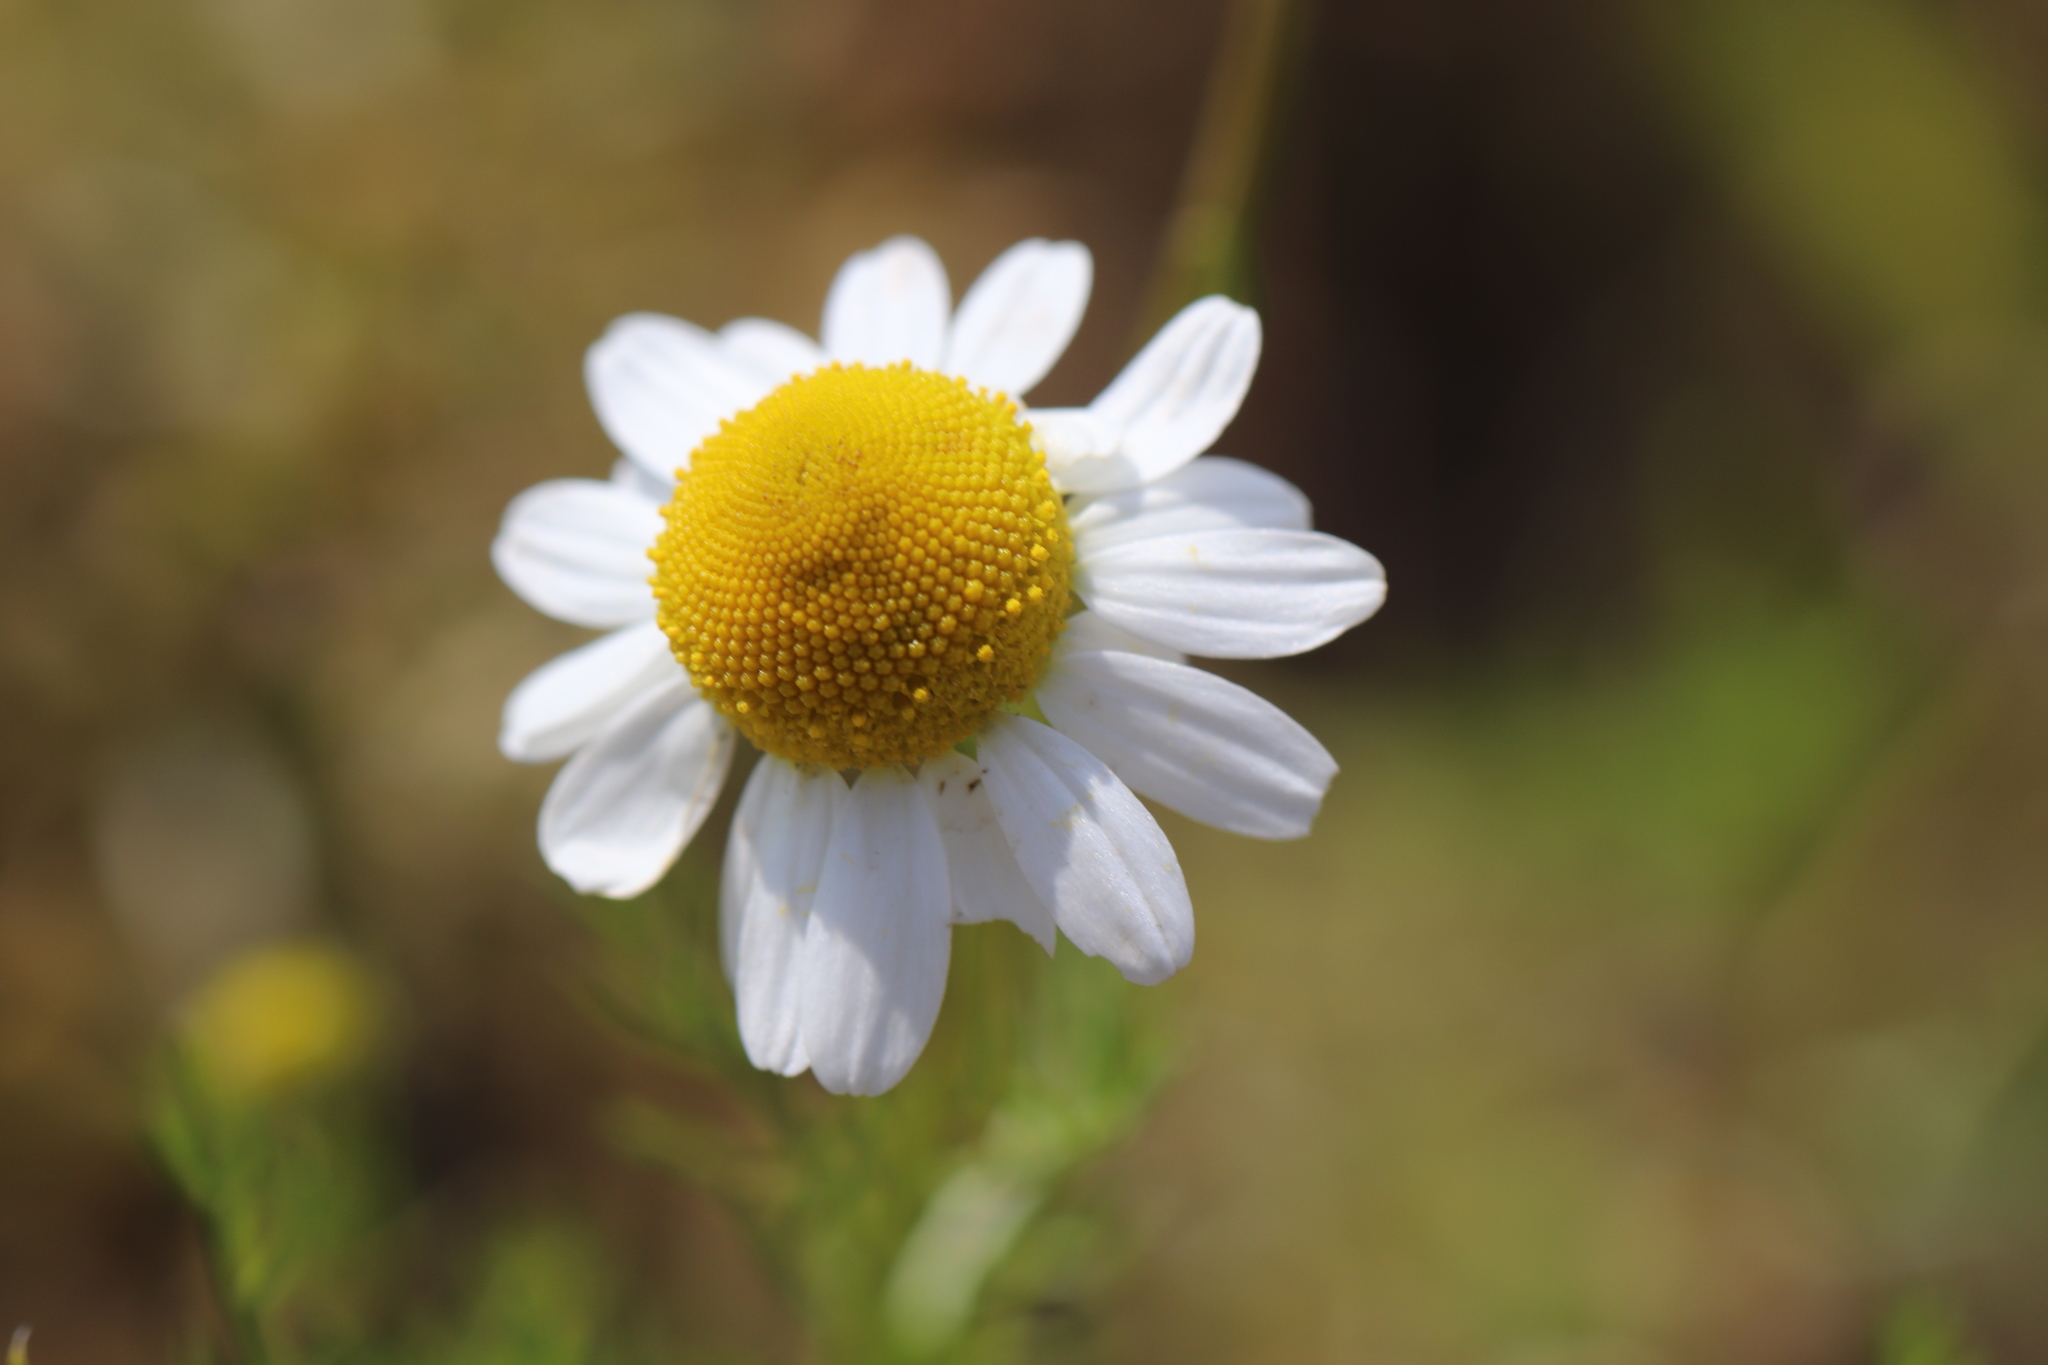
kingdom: Plantae
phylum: Tracheophyta
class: Magnoliopsida
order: Asterales
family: Asteraceae
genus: Matricaria
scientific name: Matricaria chamomilla
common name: Scented mayweed
